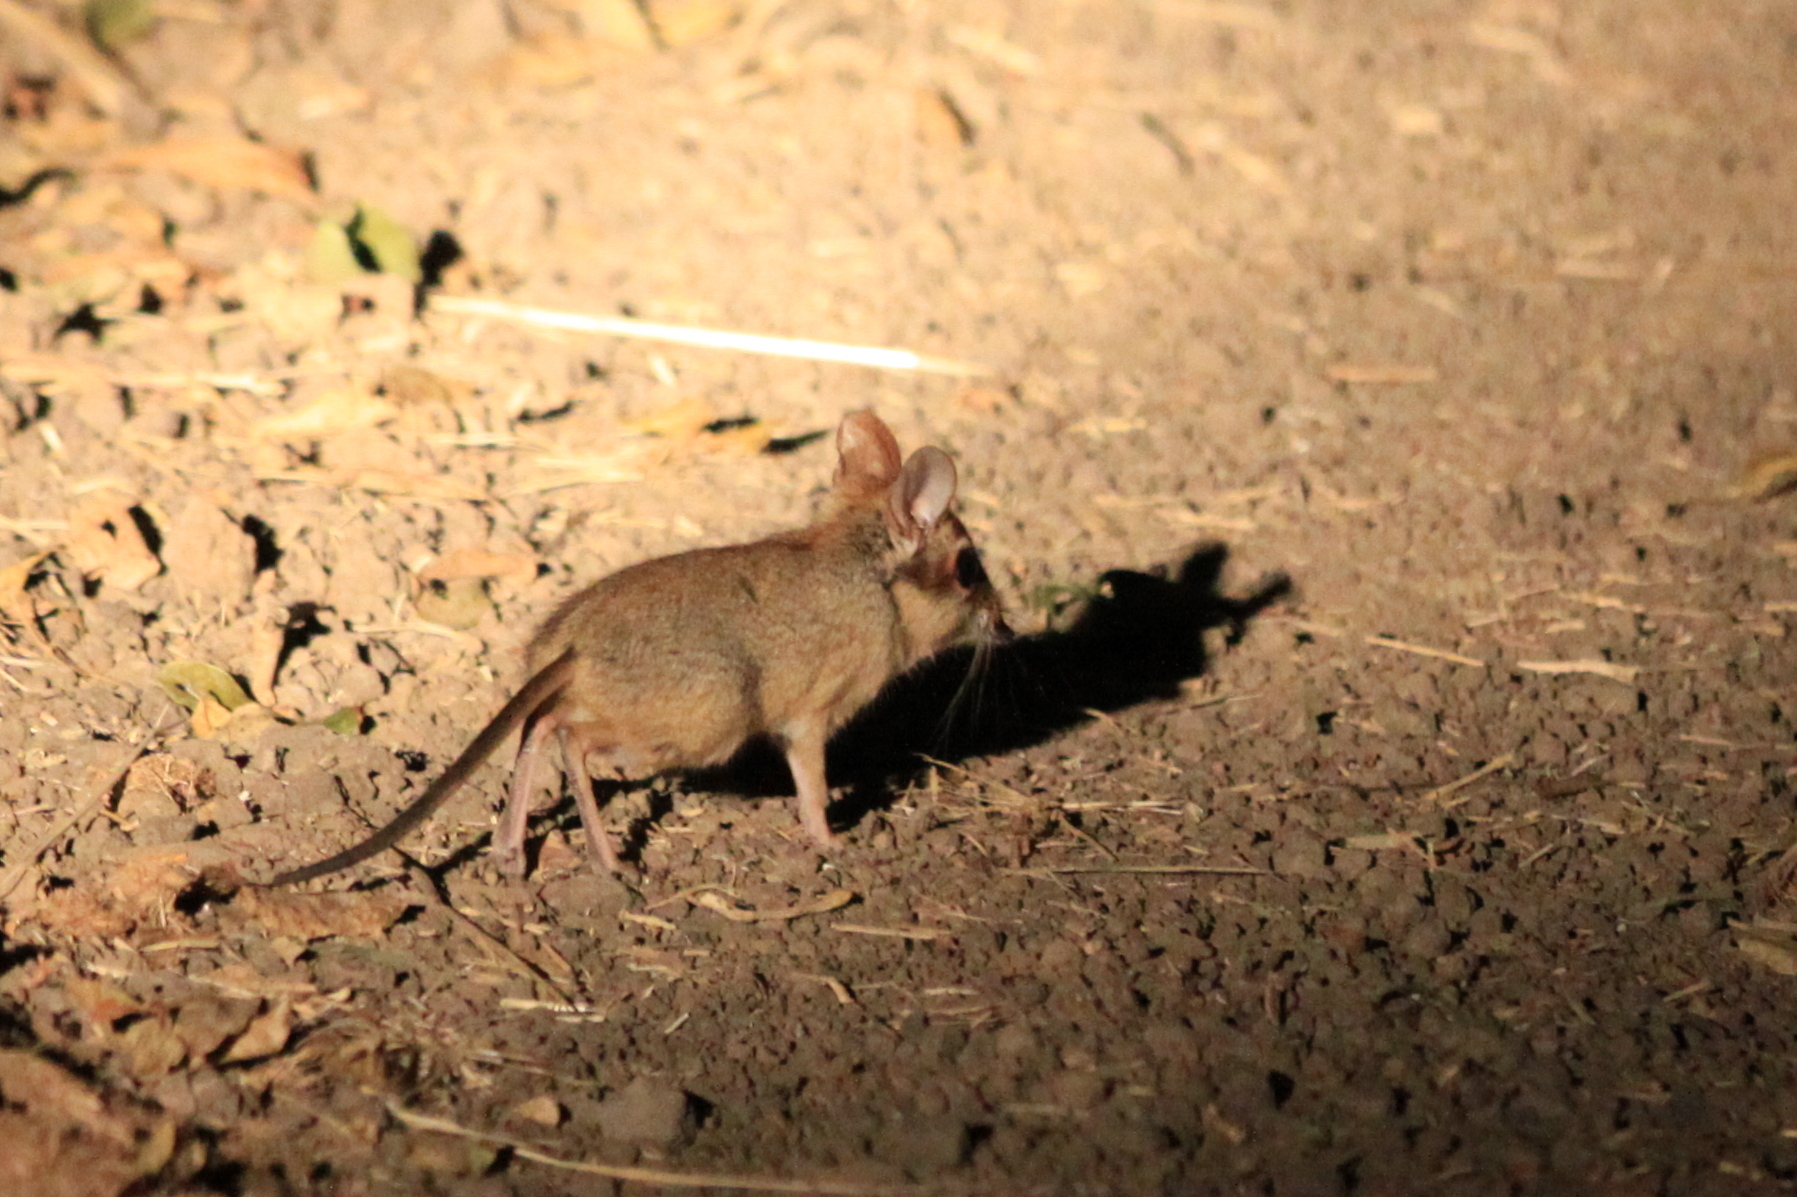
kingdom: Animalia
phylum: Chordata
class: Mammalia
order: Macroscelidea
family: Macroscelididae
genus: Petrodromus
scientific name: Petrodromus tetradactylus
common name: Four-toed elephant shrew
